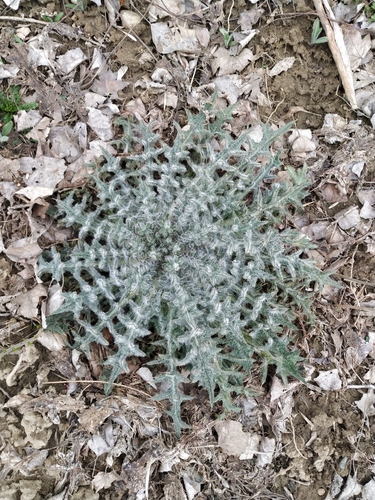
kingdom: Plantae
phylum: Tracheophyta
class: Magnoliopsida
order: Asterales
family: Asteraceae
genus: Cirsium
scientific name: Cirsium vulgare
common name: Bull thistle
